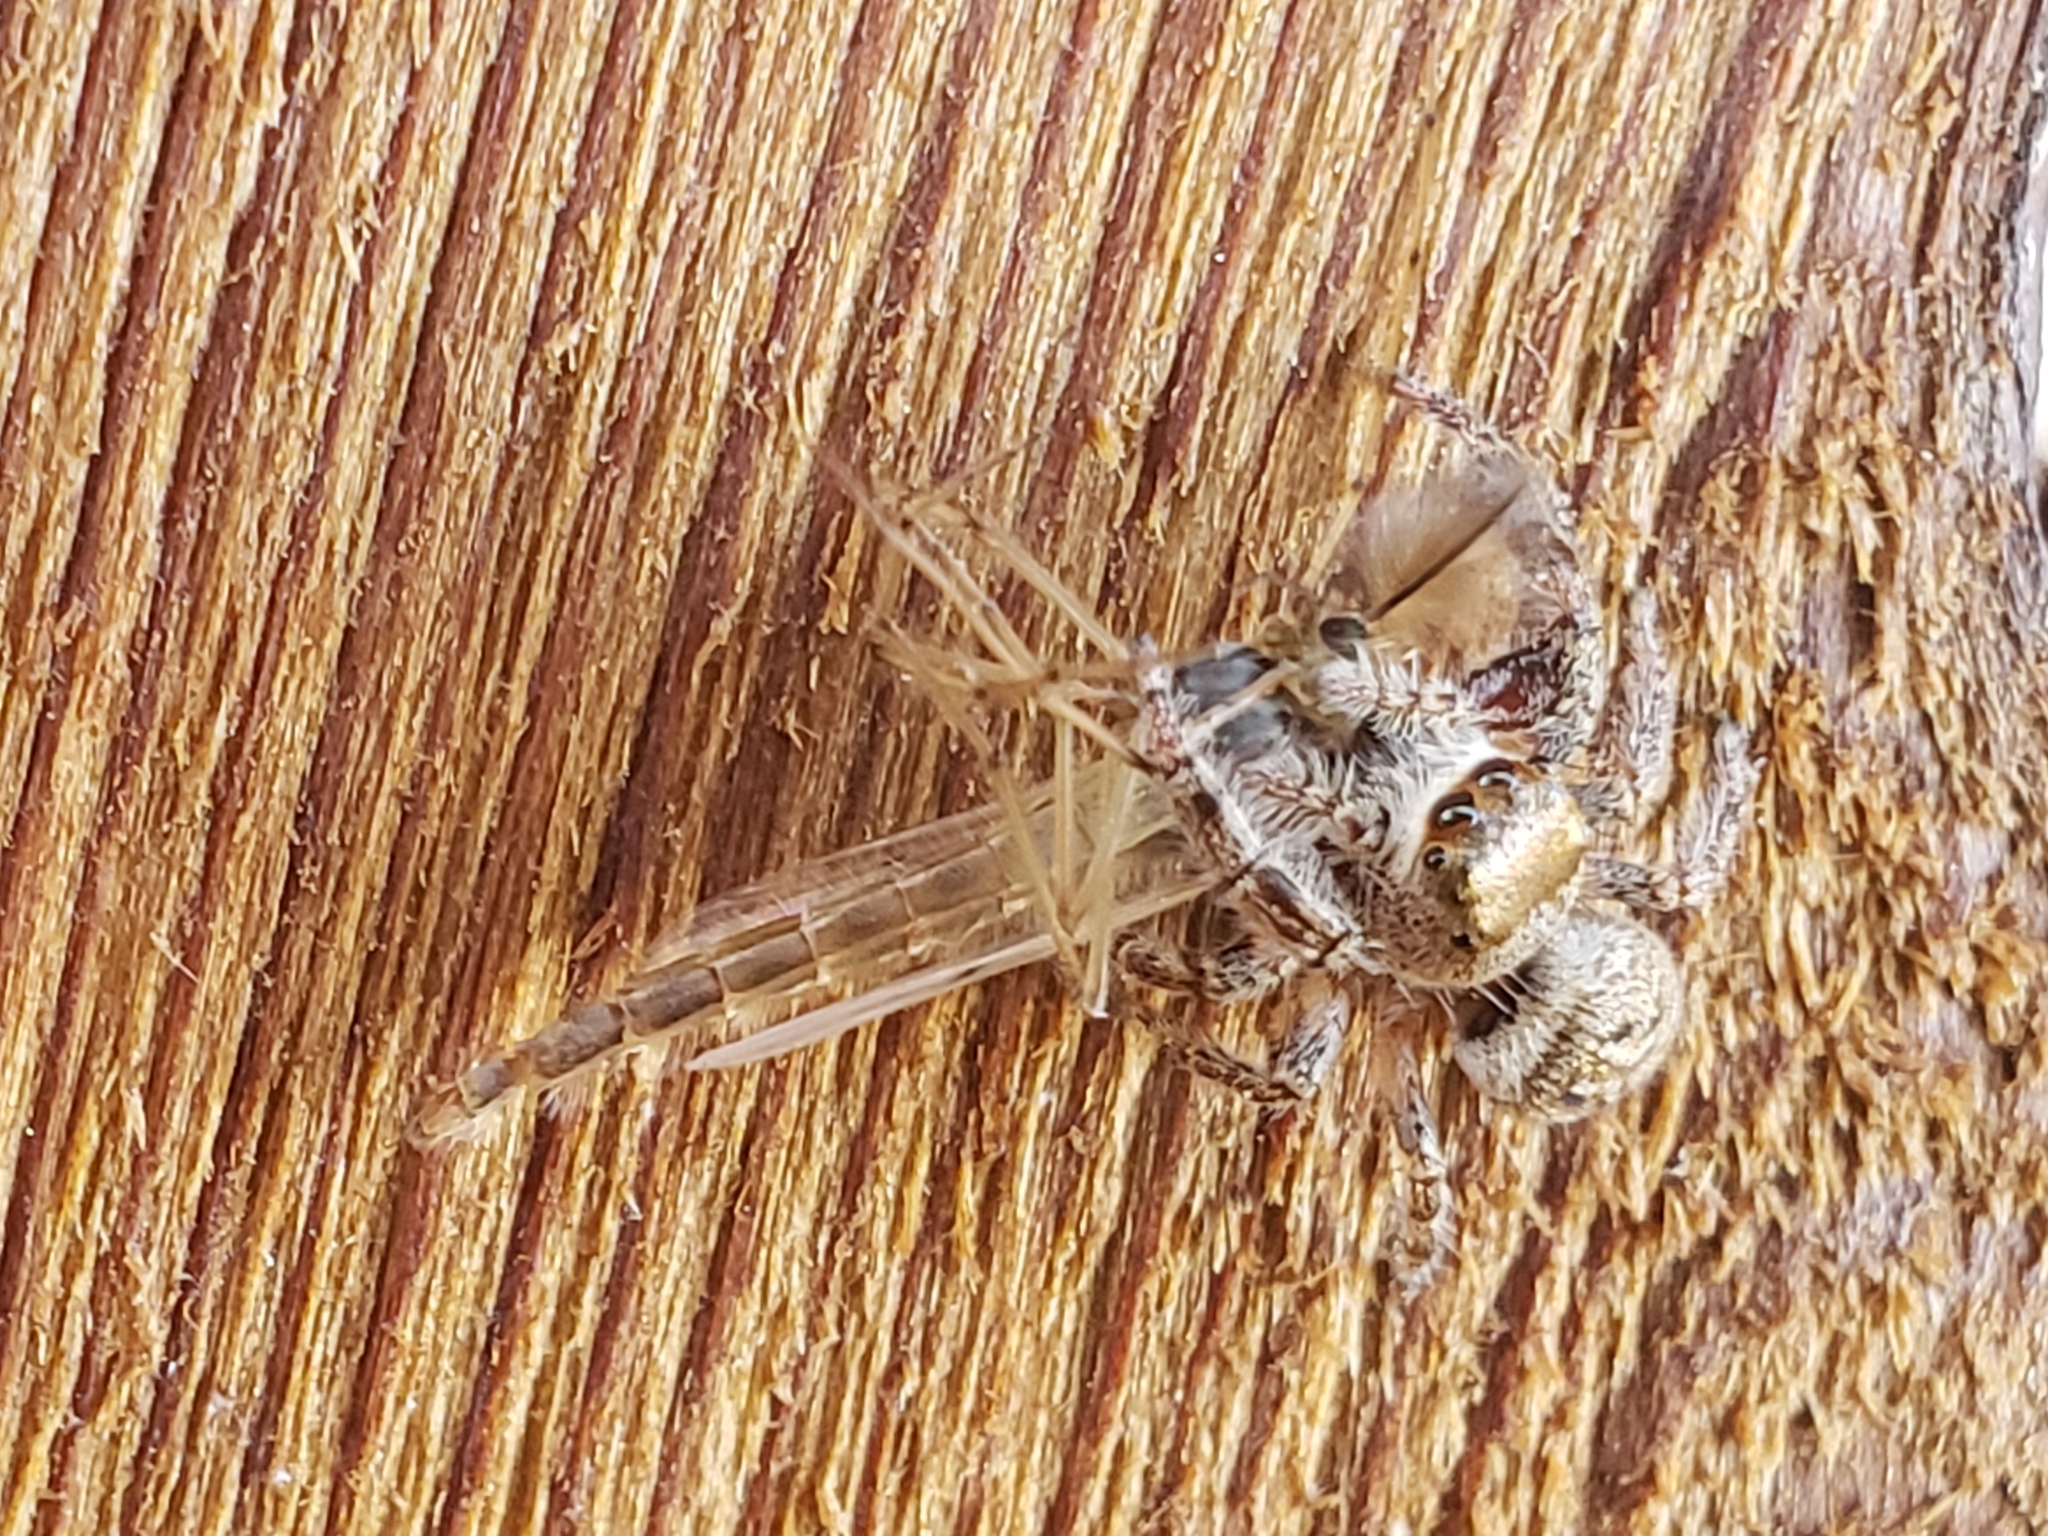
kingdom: Animalia
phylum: Arthropoda
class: Arachnida
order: Araneae
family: Salticidae
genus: Eris
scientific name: Eris militaris
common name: Bronze jumper
